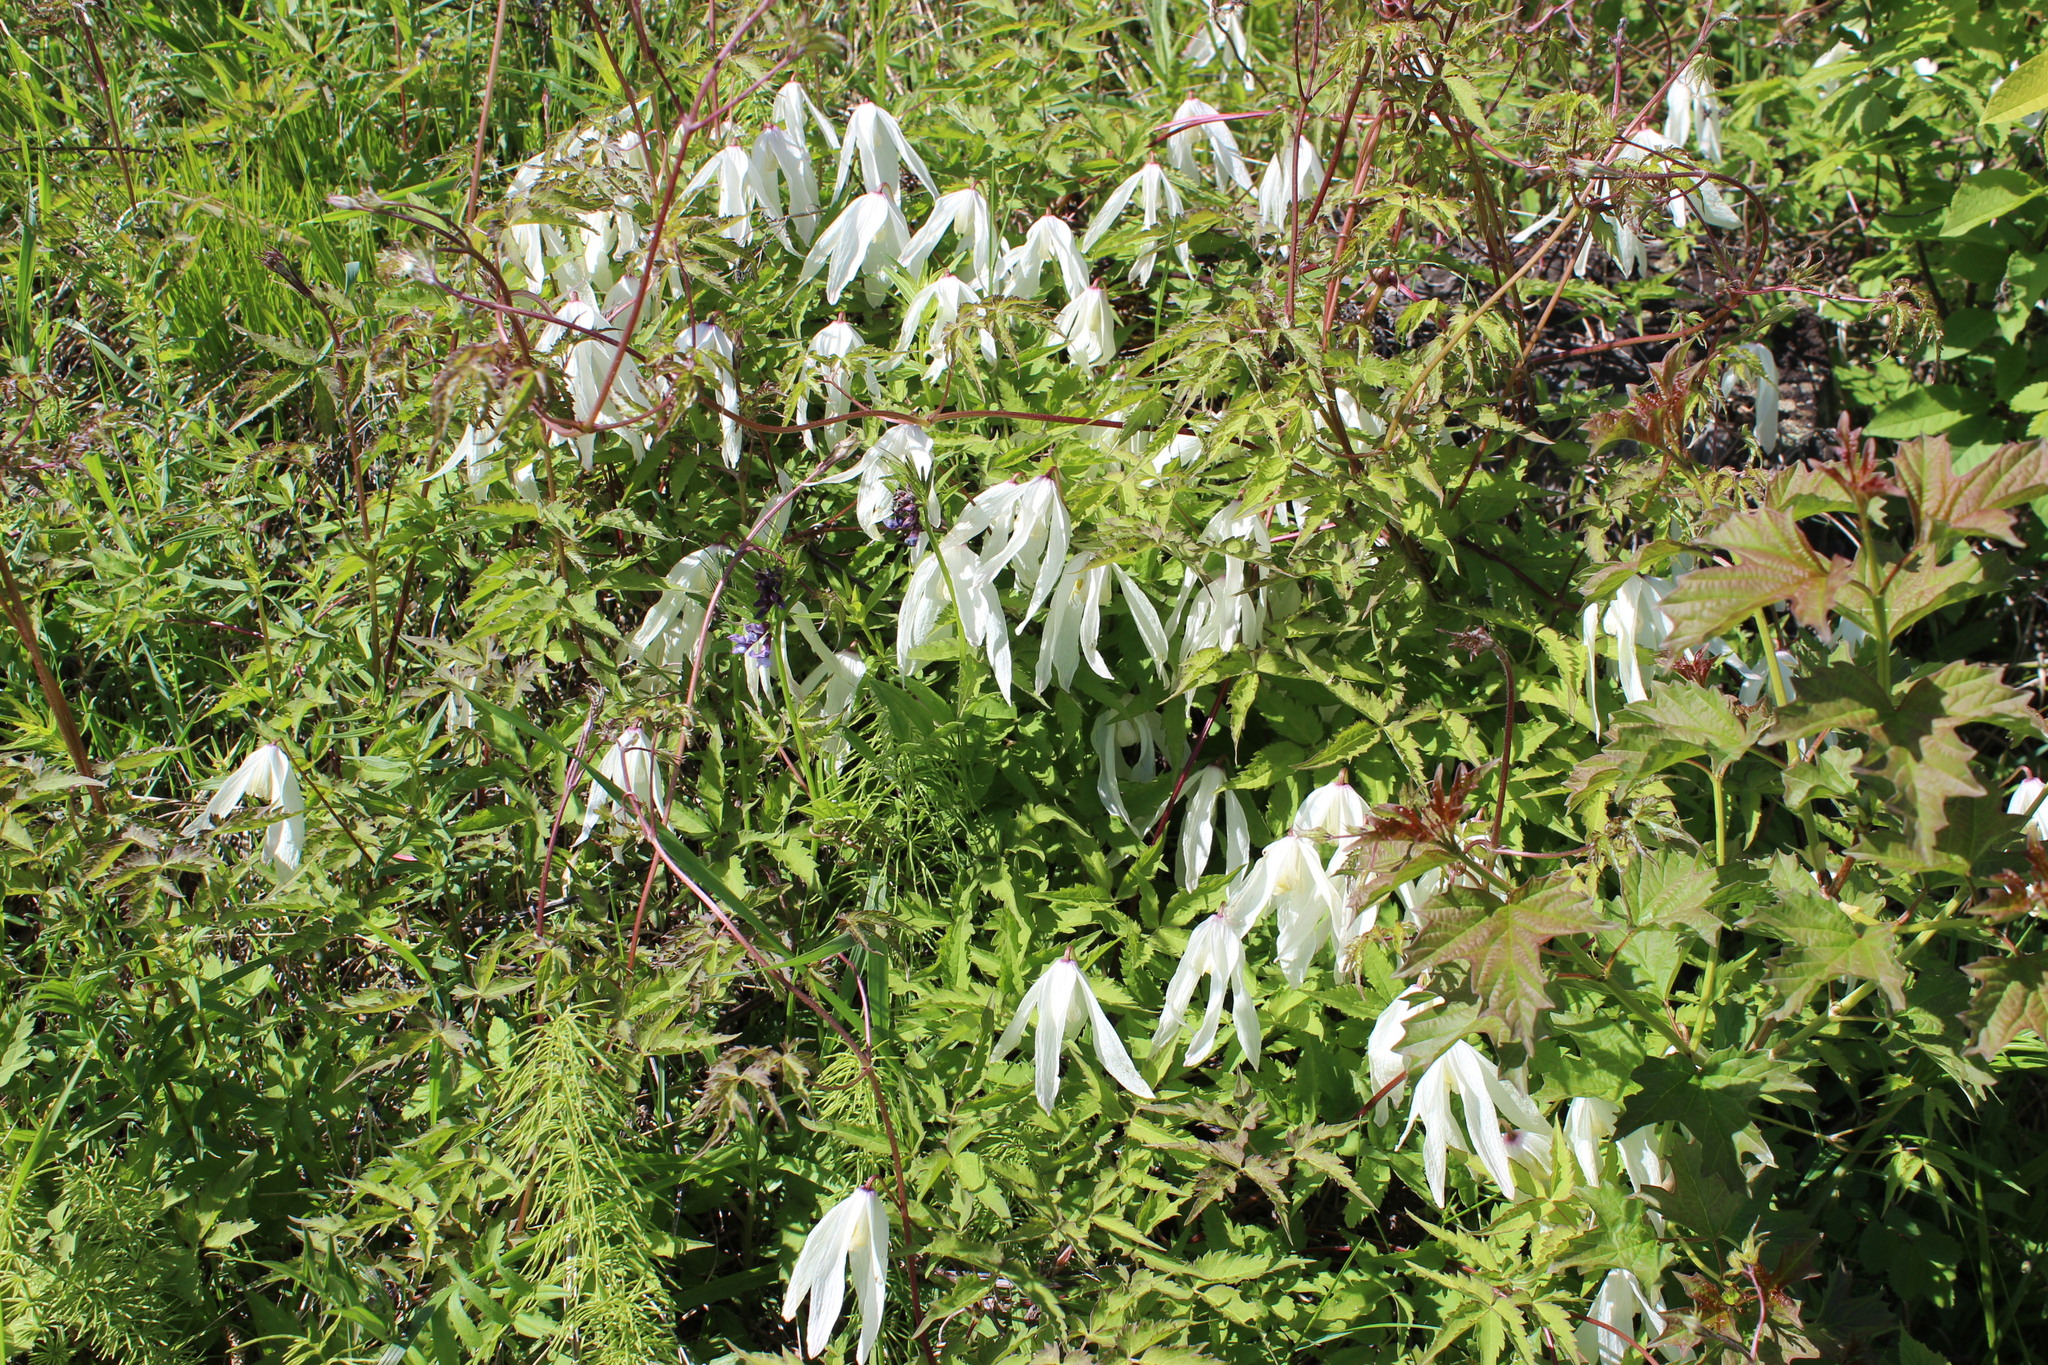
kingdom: Plantae
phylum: Tracheophyta
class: Magnoliopsida
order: Ranunculales
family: Ranunculaceae
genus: Clematis
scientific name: Clematis sibirica
